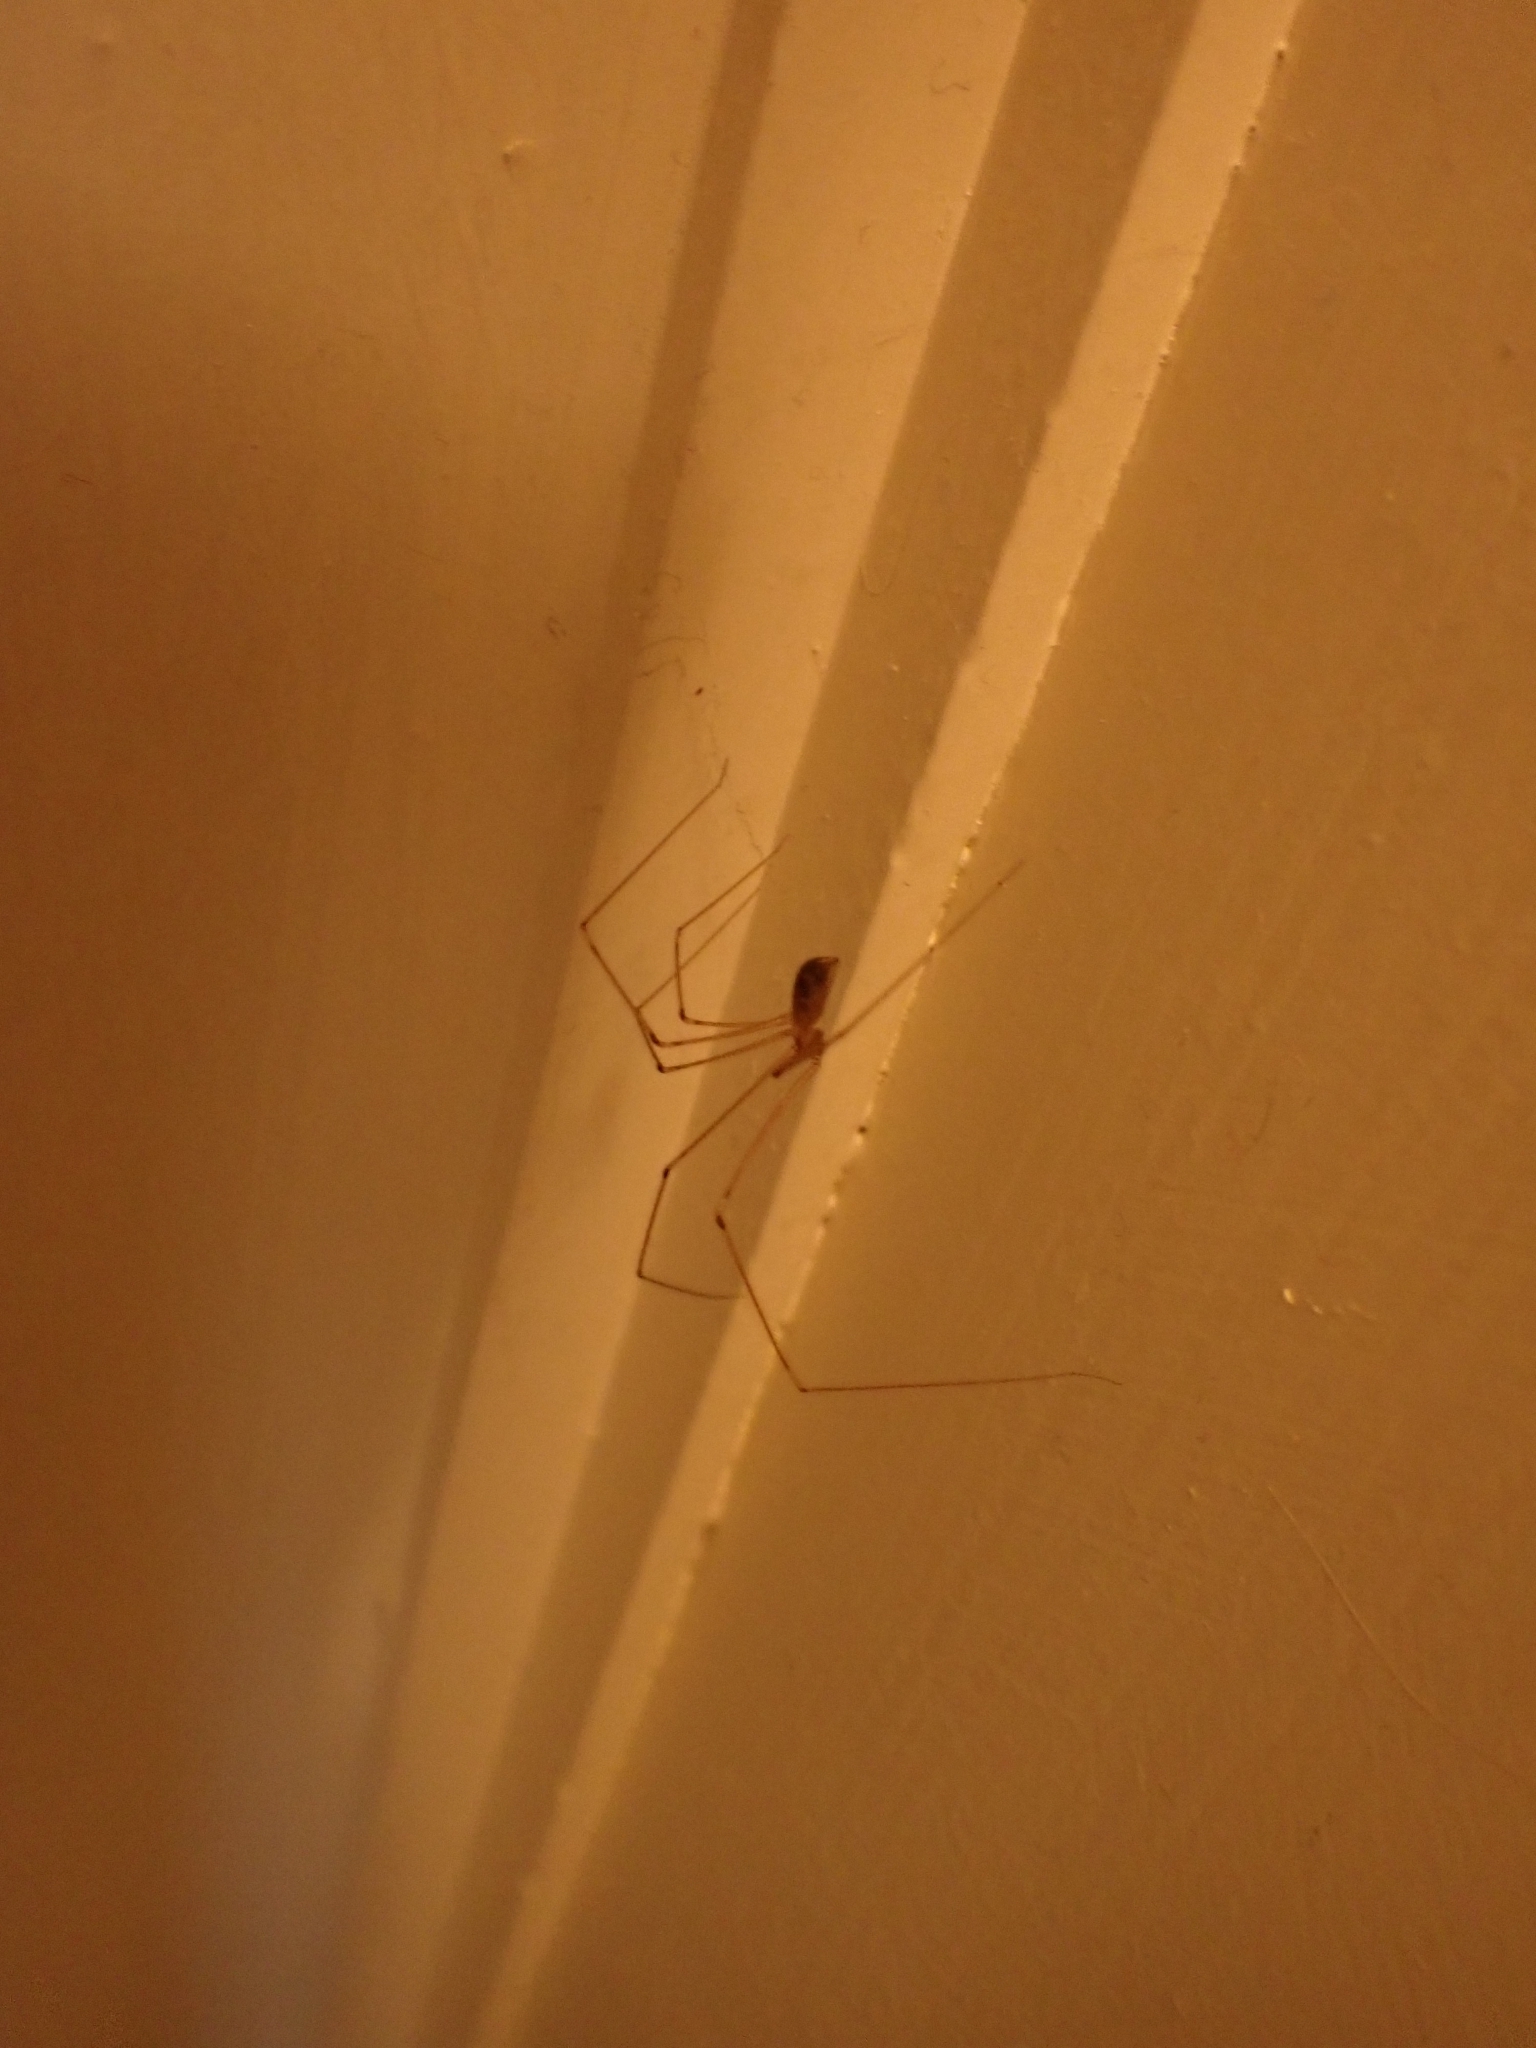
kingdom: Animalia
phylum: Arthropoda
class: Arachnida
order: Araneae
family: Pholcidae
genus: Pholcus
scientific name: Pholcus phalangioides
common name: Longbodied cellar spider
